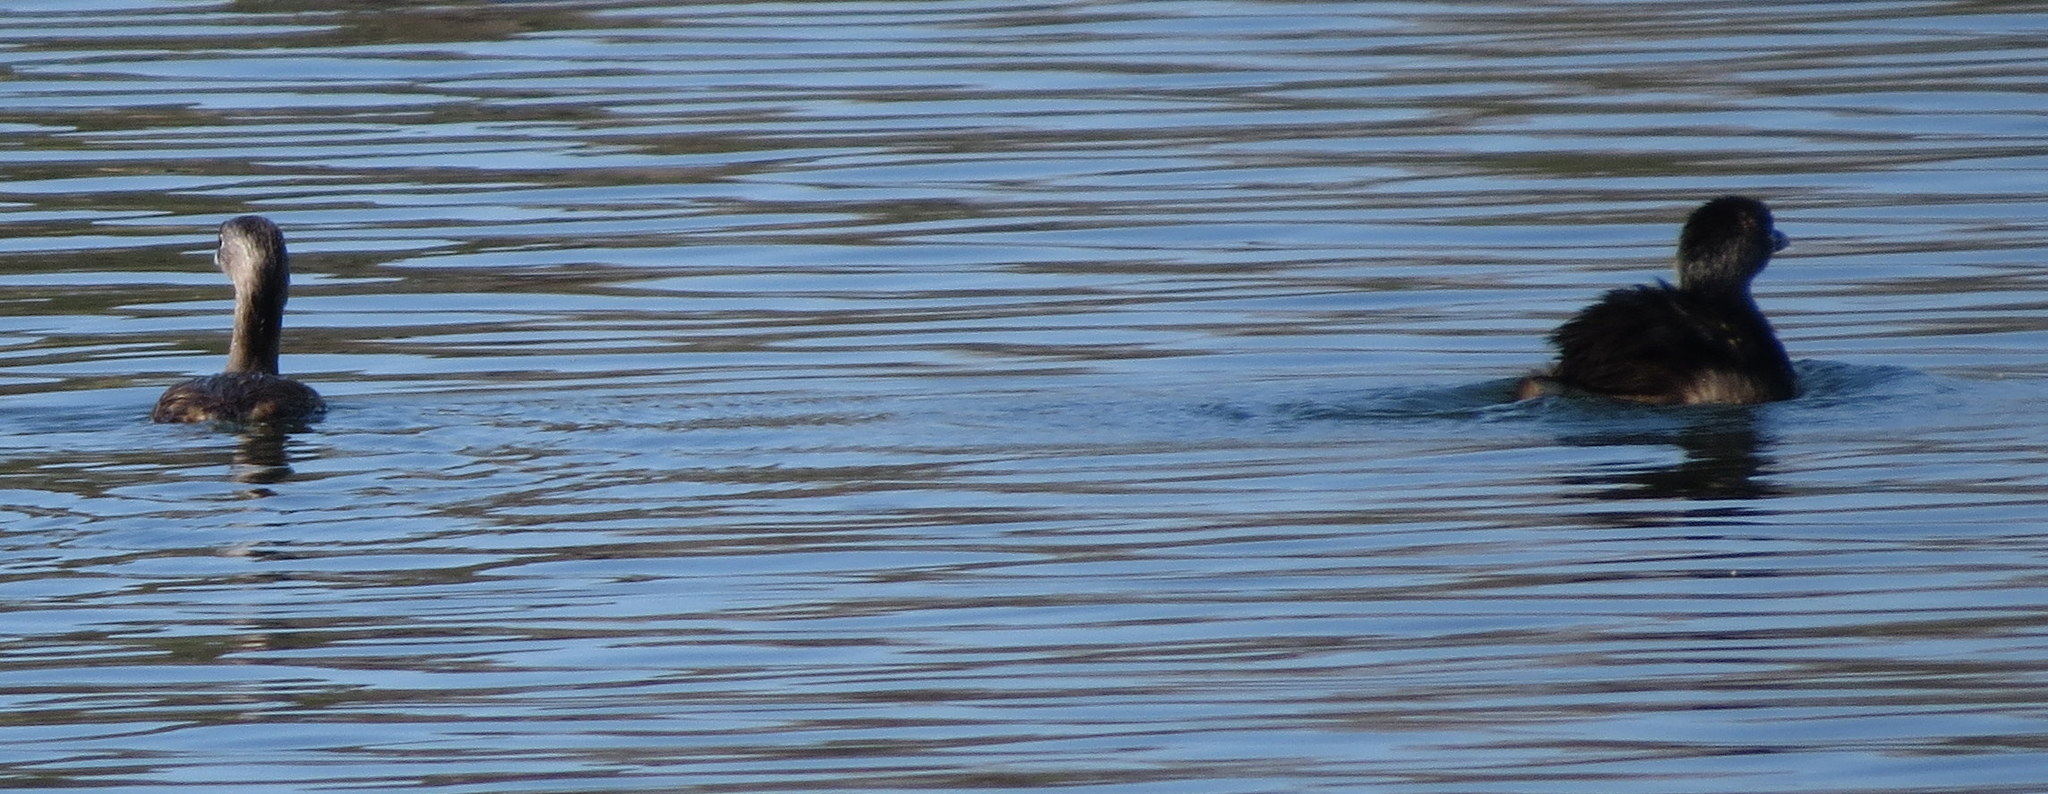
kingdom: Animalia
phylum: Chordata
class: Aves
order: Podicipediformes
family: Podicipedidae
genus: Podilymbus
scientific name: Podilymbus podiceps
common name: Pied-billed grebe
